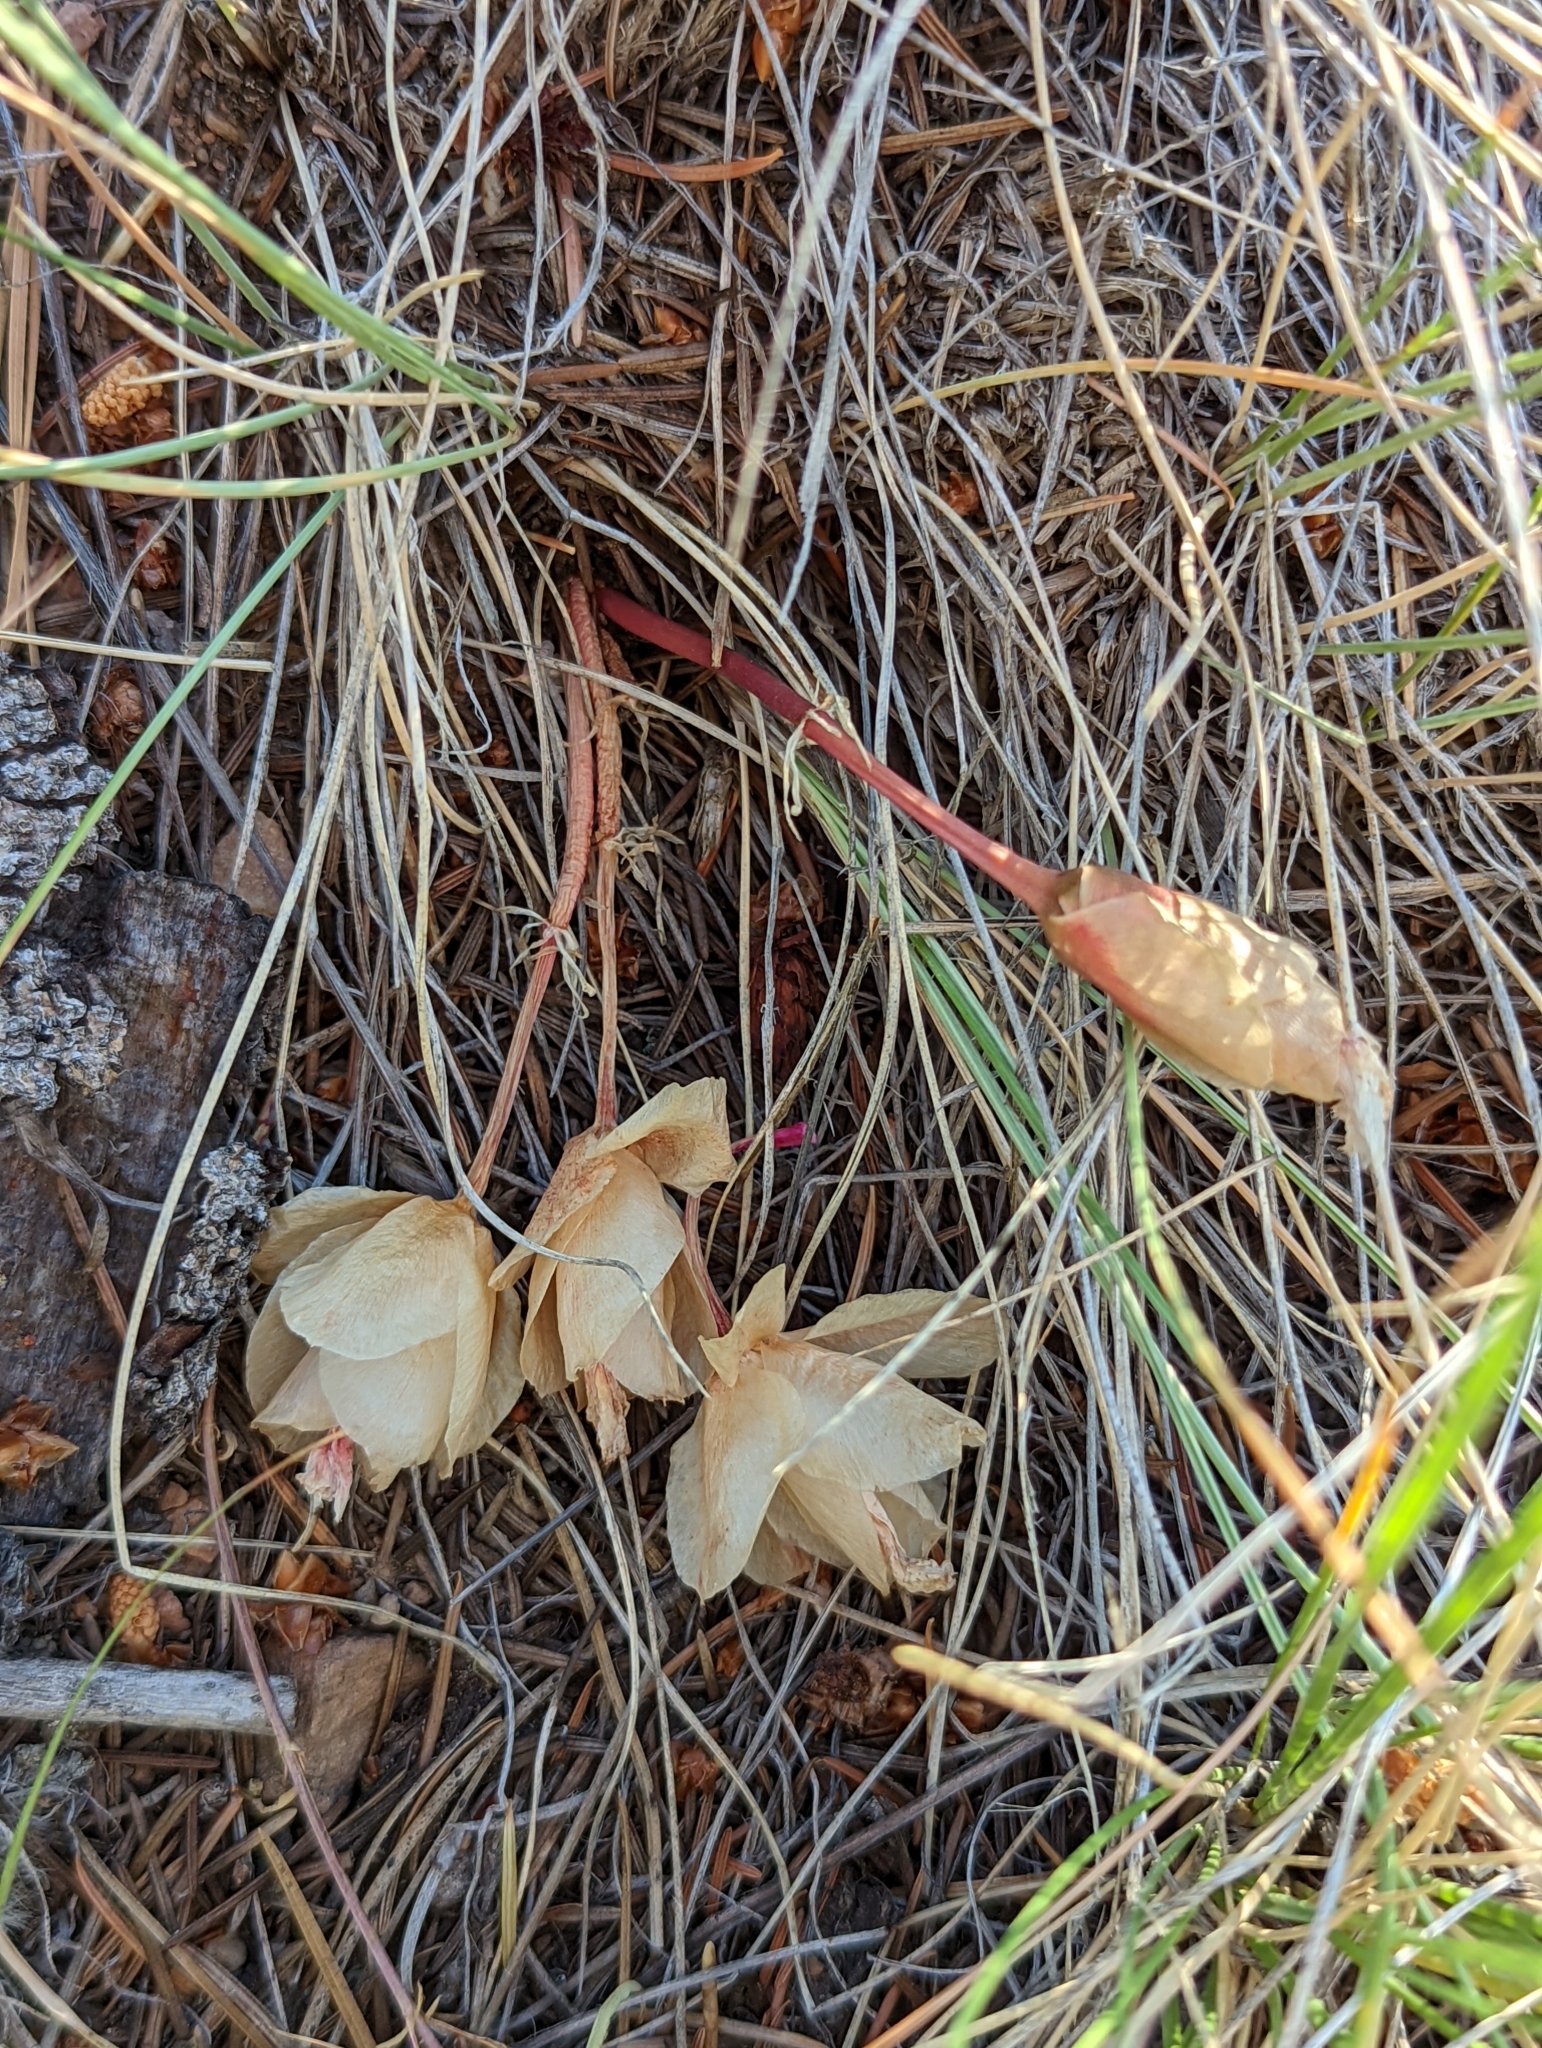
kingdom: Plantae
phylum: Tracheophyta
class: Magnoliopsida
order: Caryophyllales
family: Montiaceae
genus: Lewisia
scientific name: Lewisia rediviva
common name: Bitter-root
